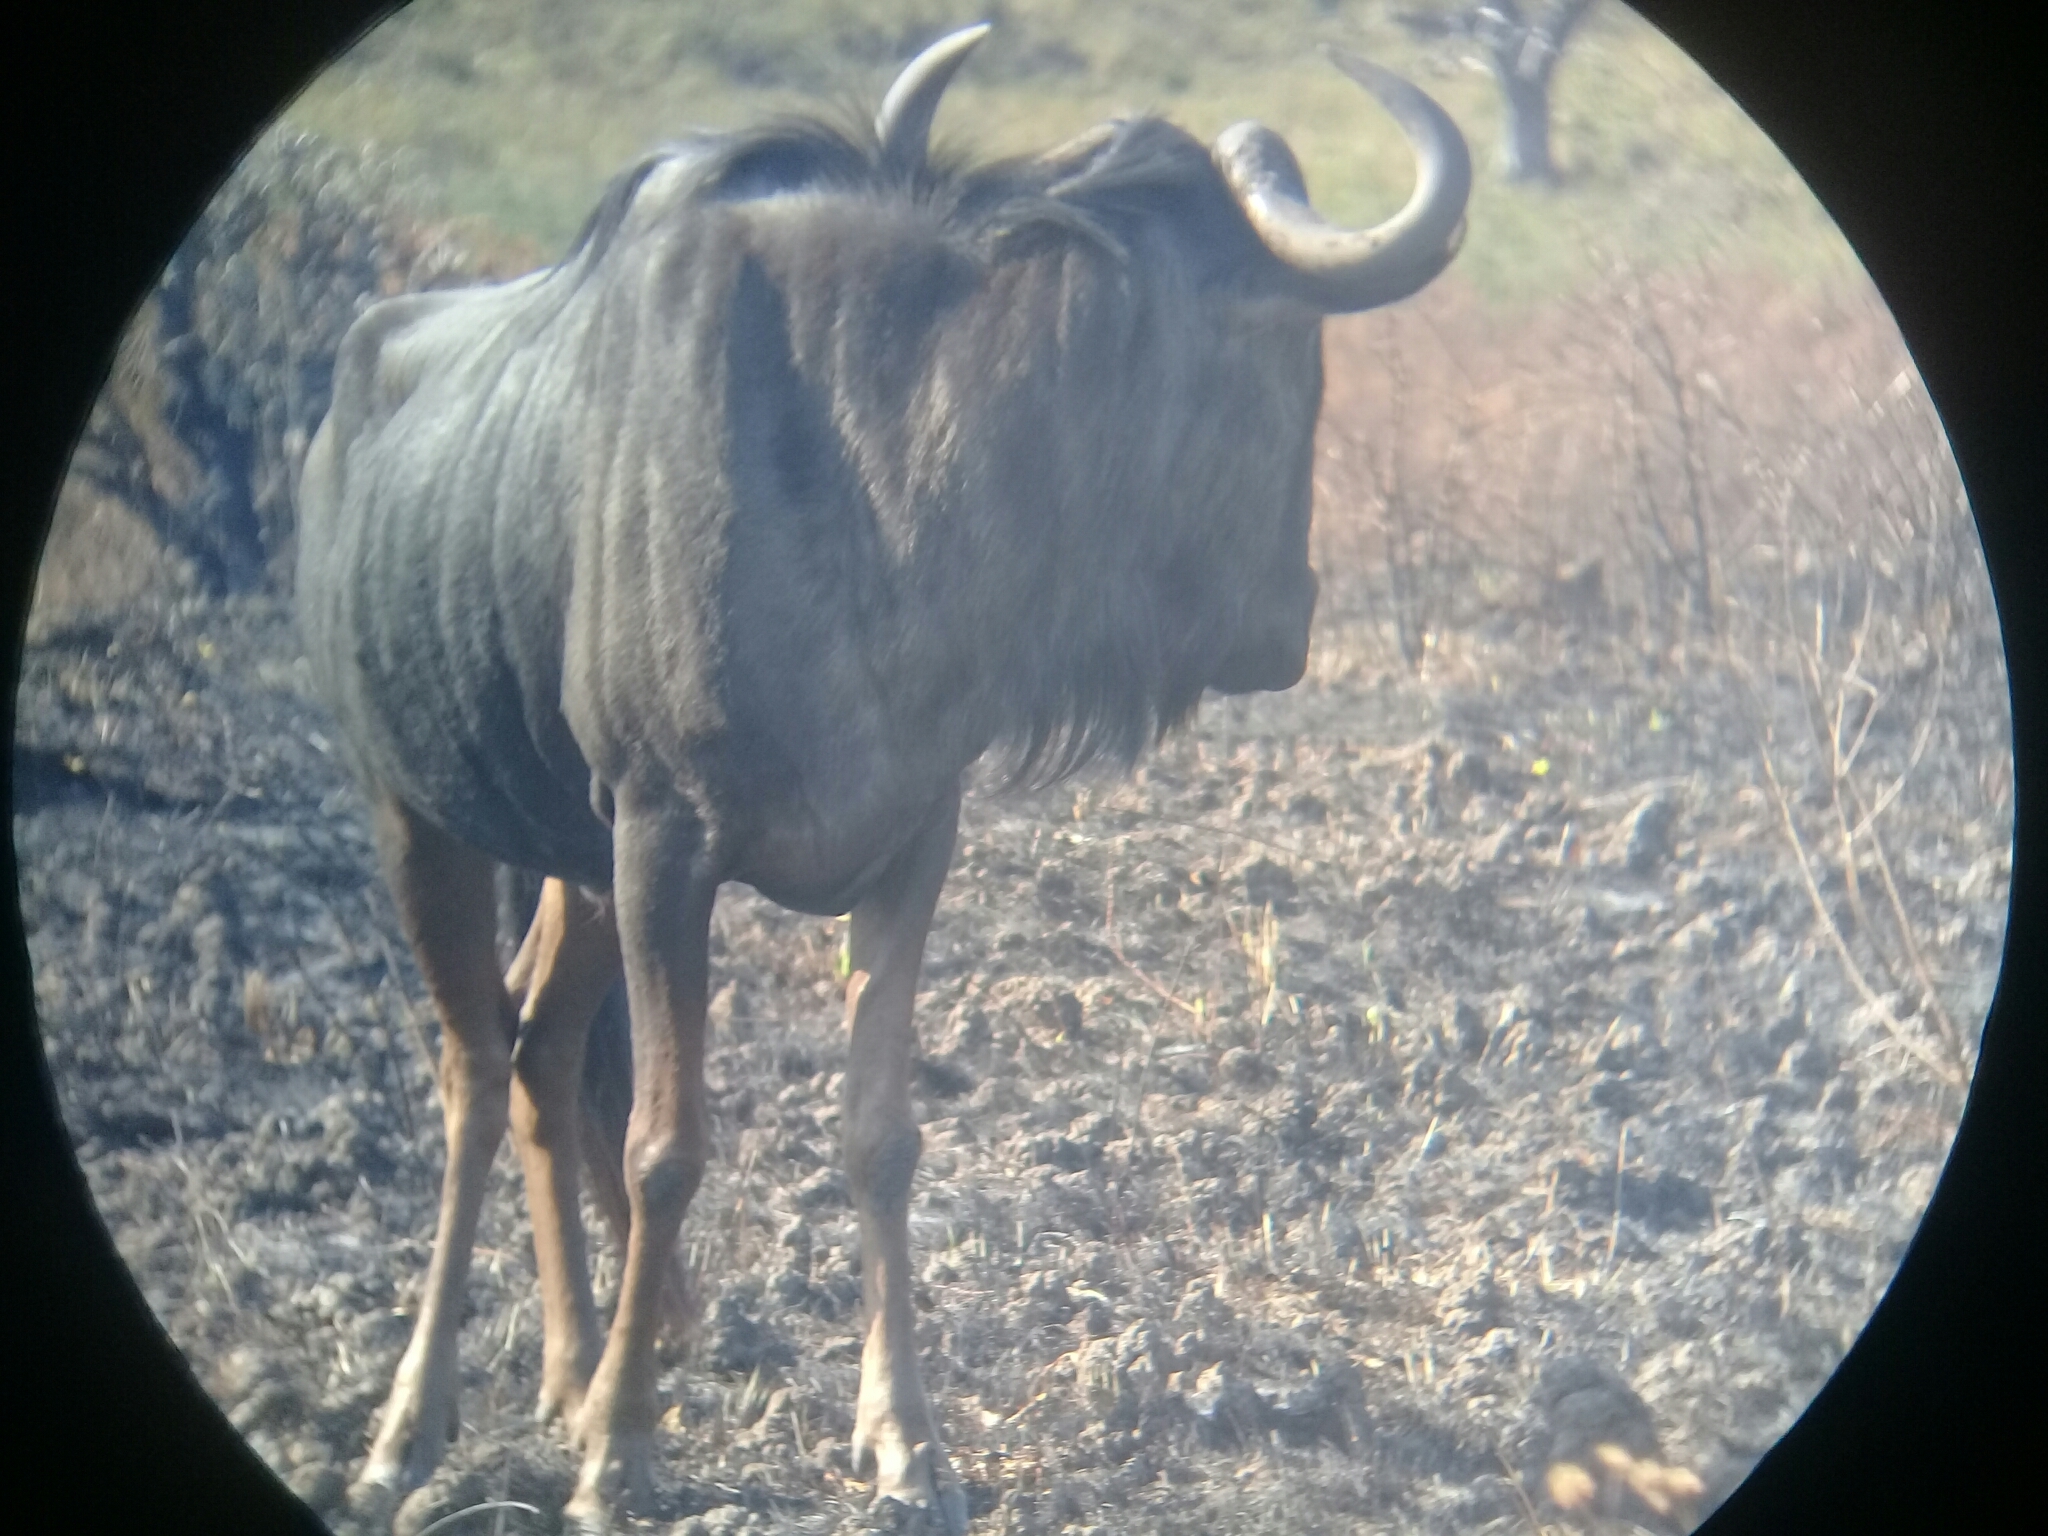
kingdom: Animalia
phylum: Chordata
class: Mammalia
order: Artiodactyla
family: Bovidae
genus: Connochaetes
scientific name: Connochaetes taurinus
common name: Blue wildebeest
